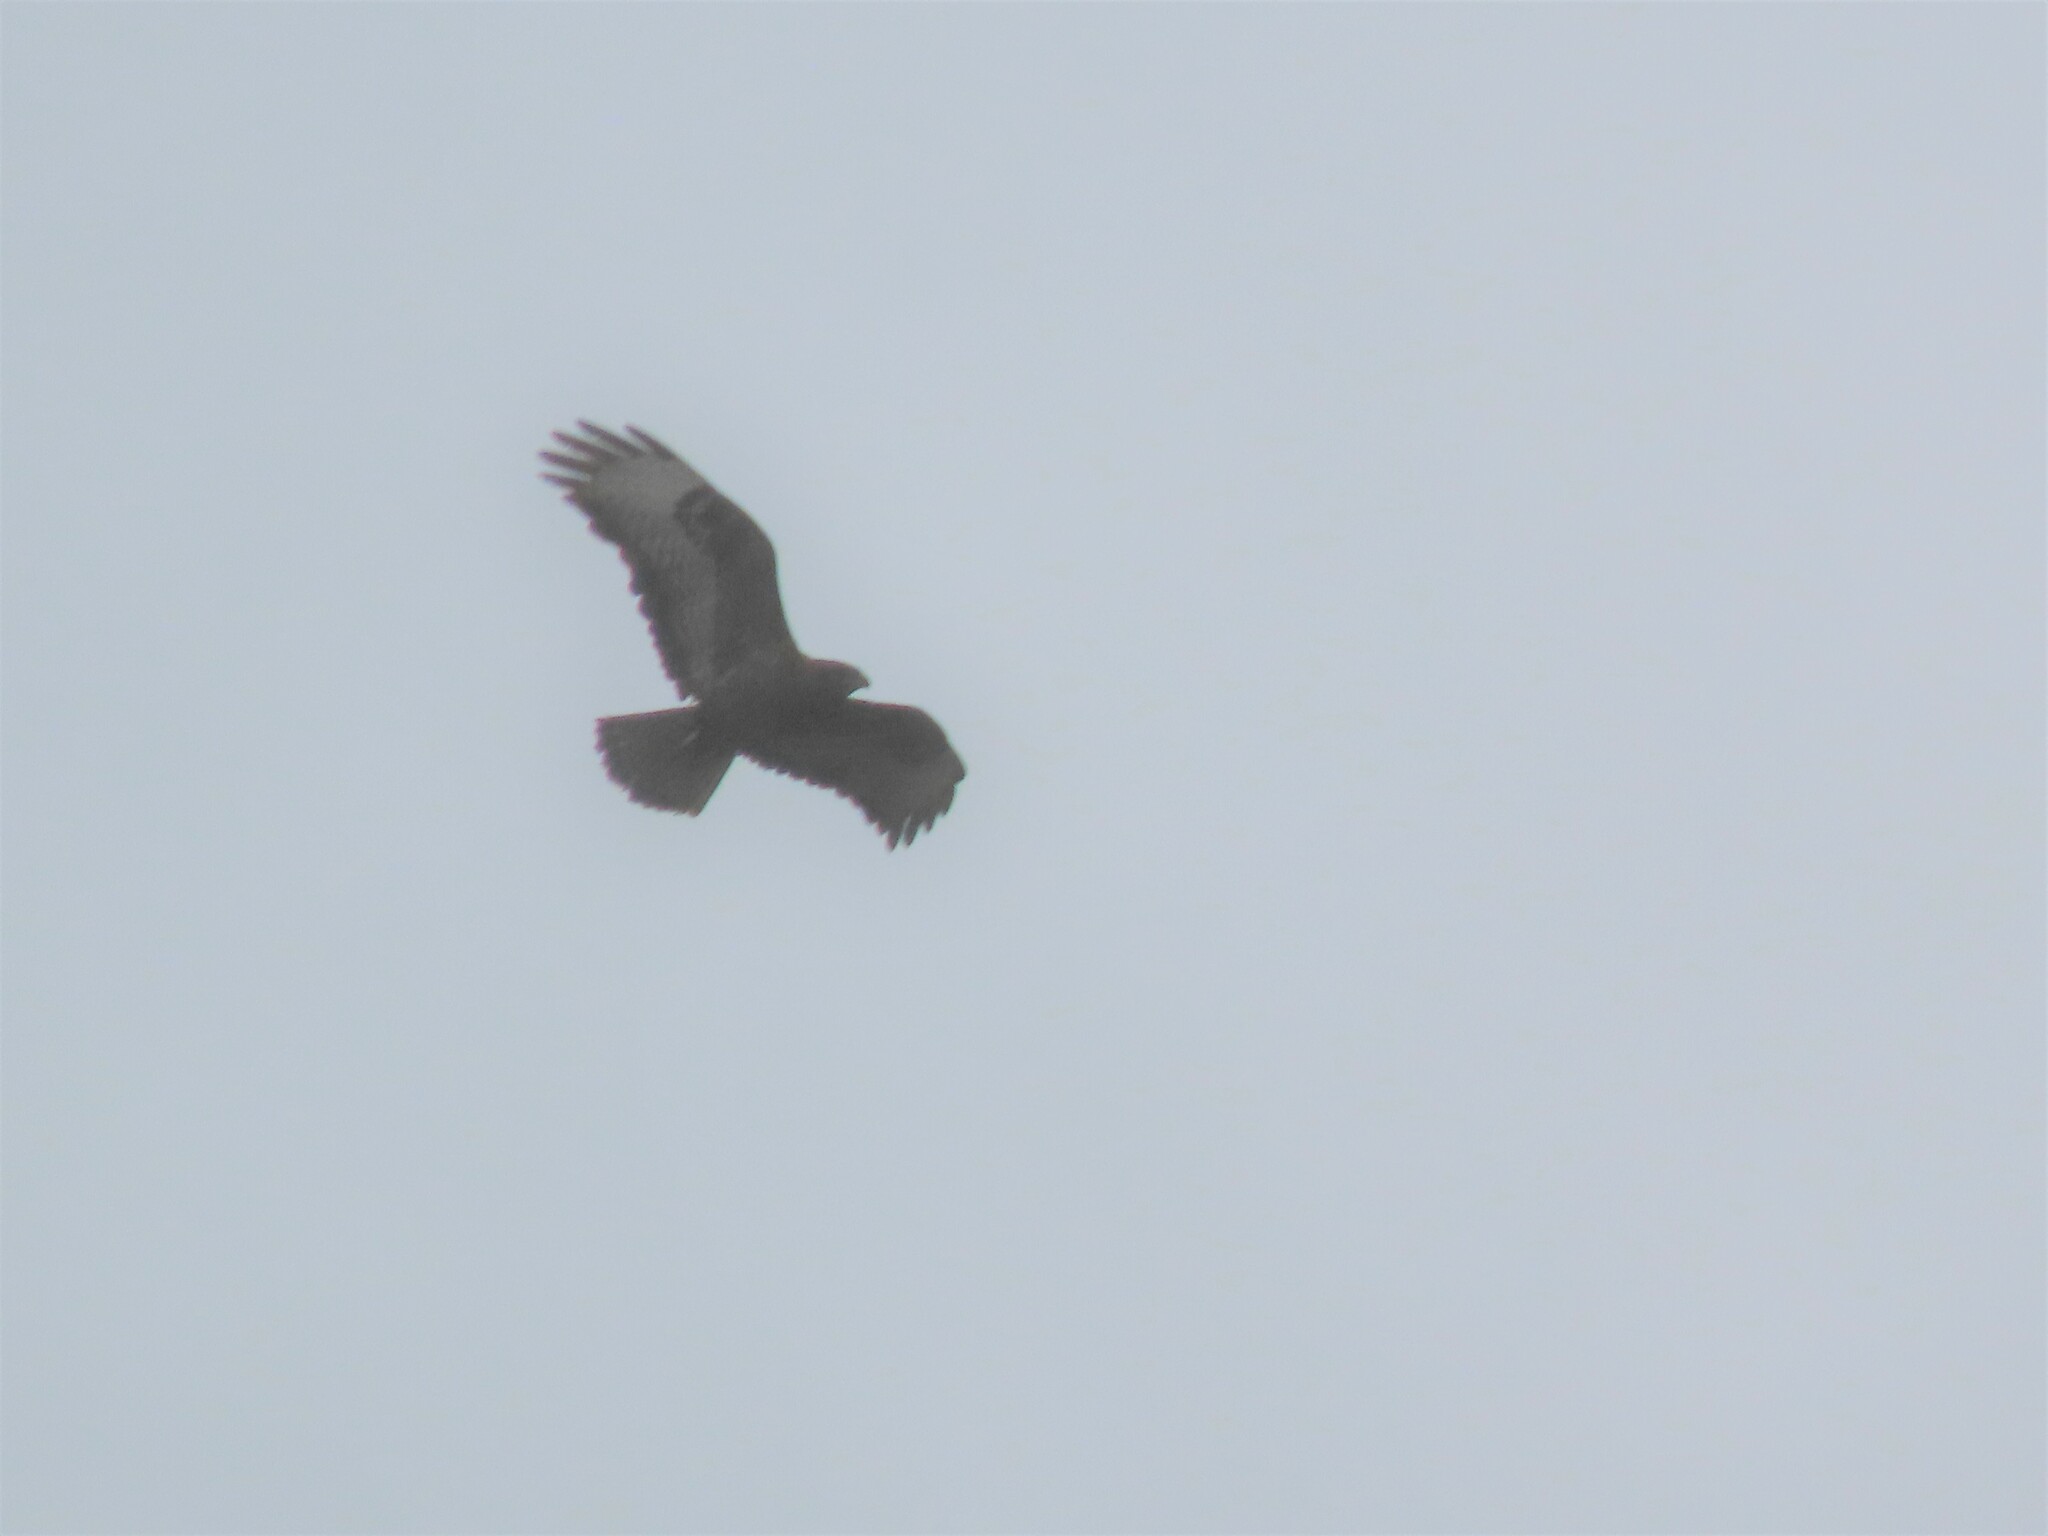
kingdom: Animalia
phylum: Chordata
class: Aves
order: Accipitriformes
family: Accipitridae
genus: Buteo
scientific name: Buteo buteo
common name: Common buzzard
